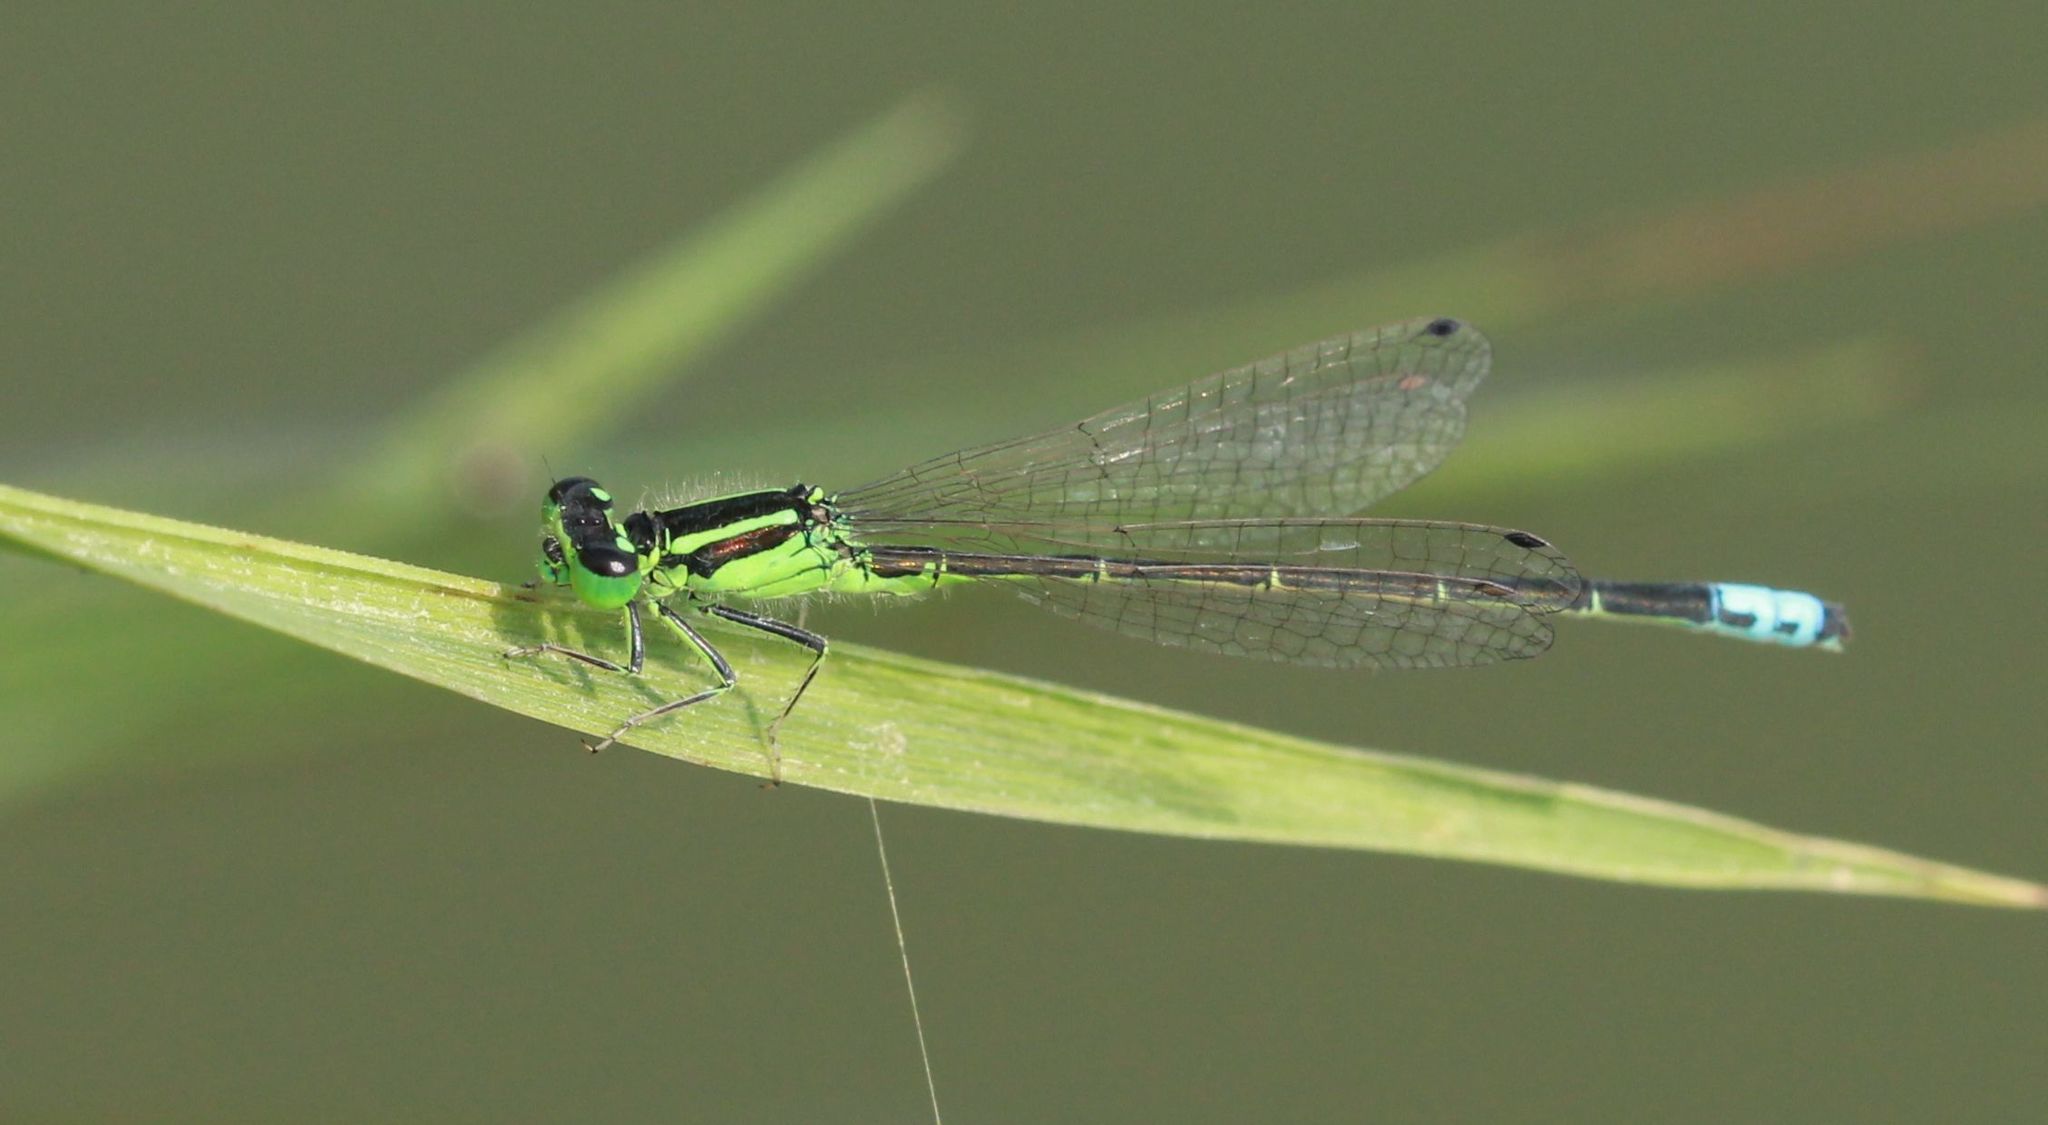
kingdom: Animalia
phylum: Arthropoda
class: Insecta
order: Odonata
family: Coenagrionidae
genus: Ischnura
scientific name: Ischnura verticalis
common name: Eastern forktail
